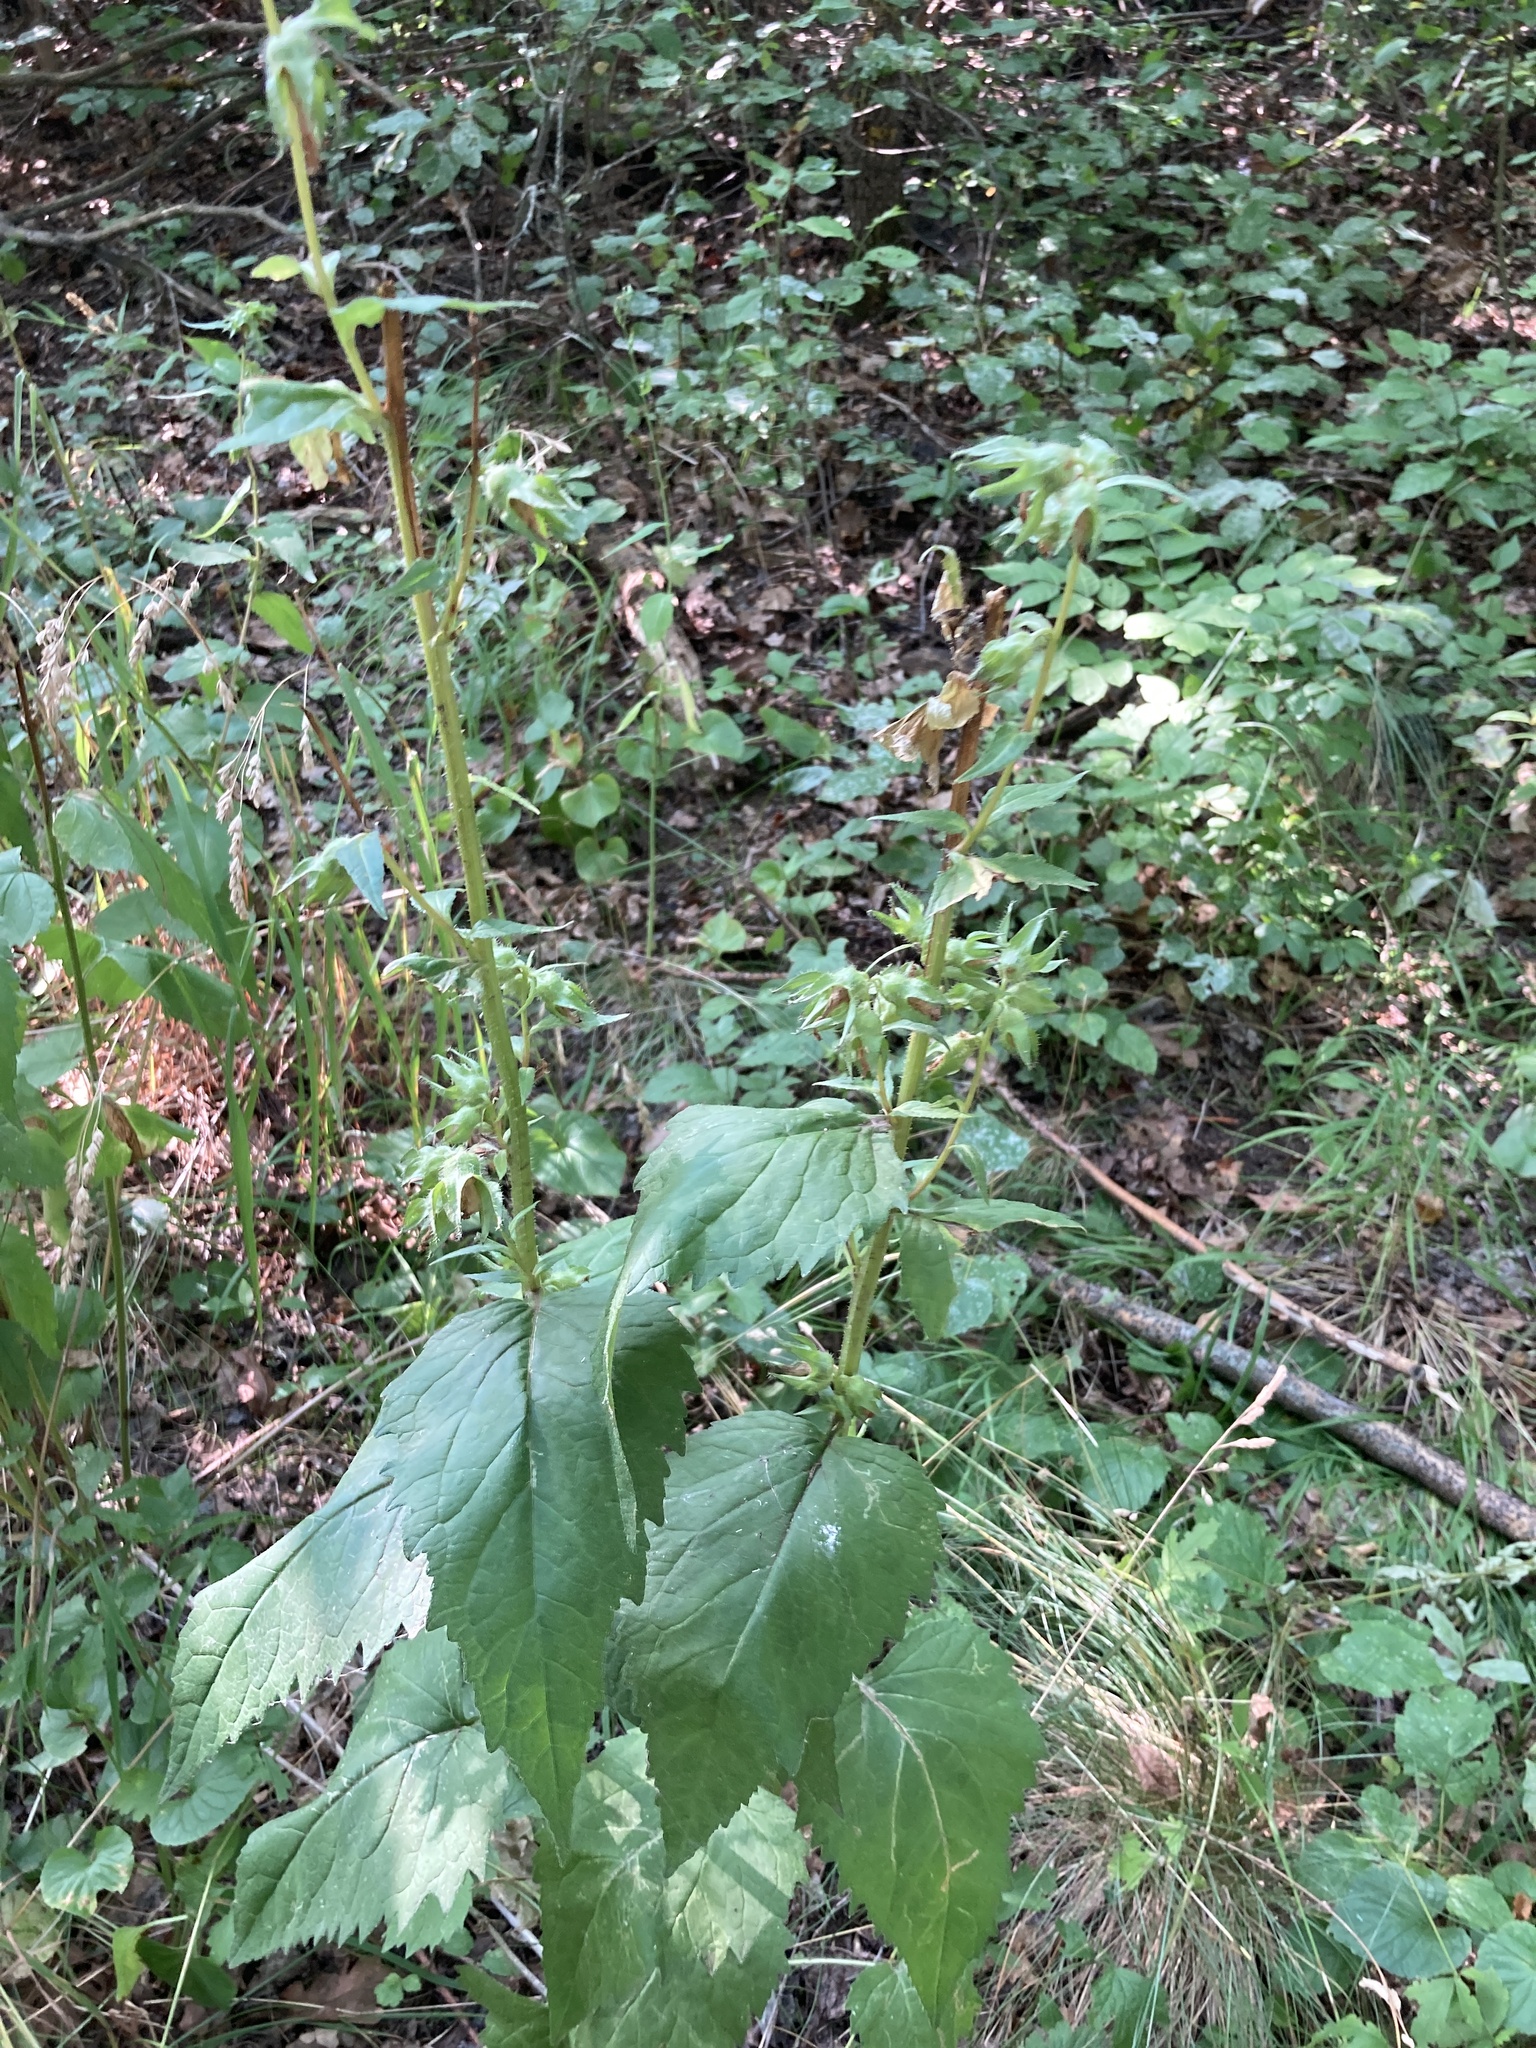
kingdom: Plantae
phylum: Tracheophyta
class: Magnoliopsida
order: Asterales
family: Campanulaceae
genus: Campanula
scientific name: Campanula trachelium
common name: Nettle-leaved bellflower
